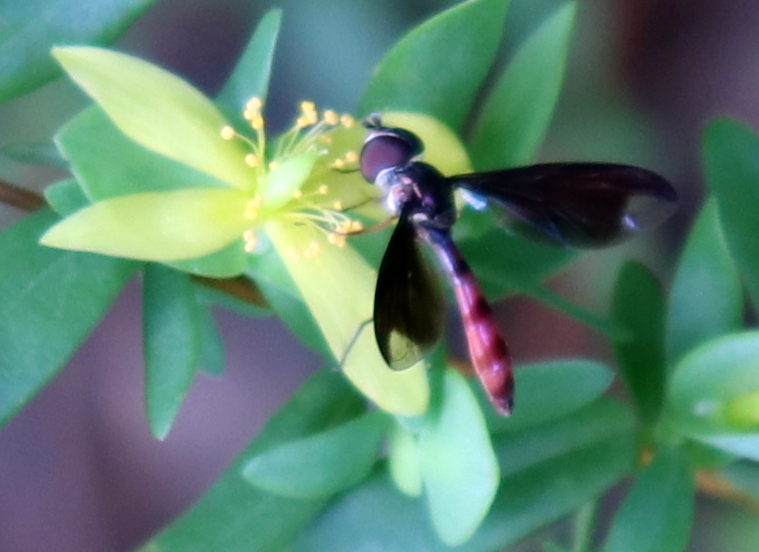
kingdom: Animalia
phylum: Arthropoda
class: Insecta
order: Diptera
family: Syrphidae
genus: Ocyptamus
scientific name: Ocyptamus fuscipennis
